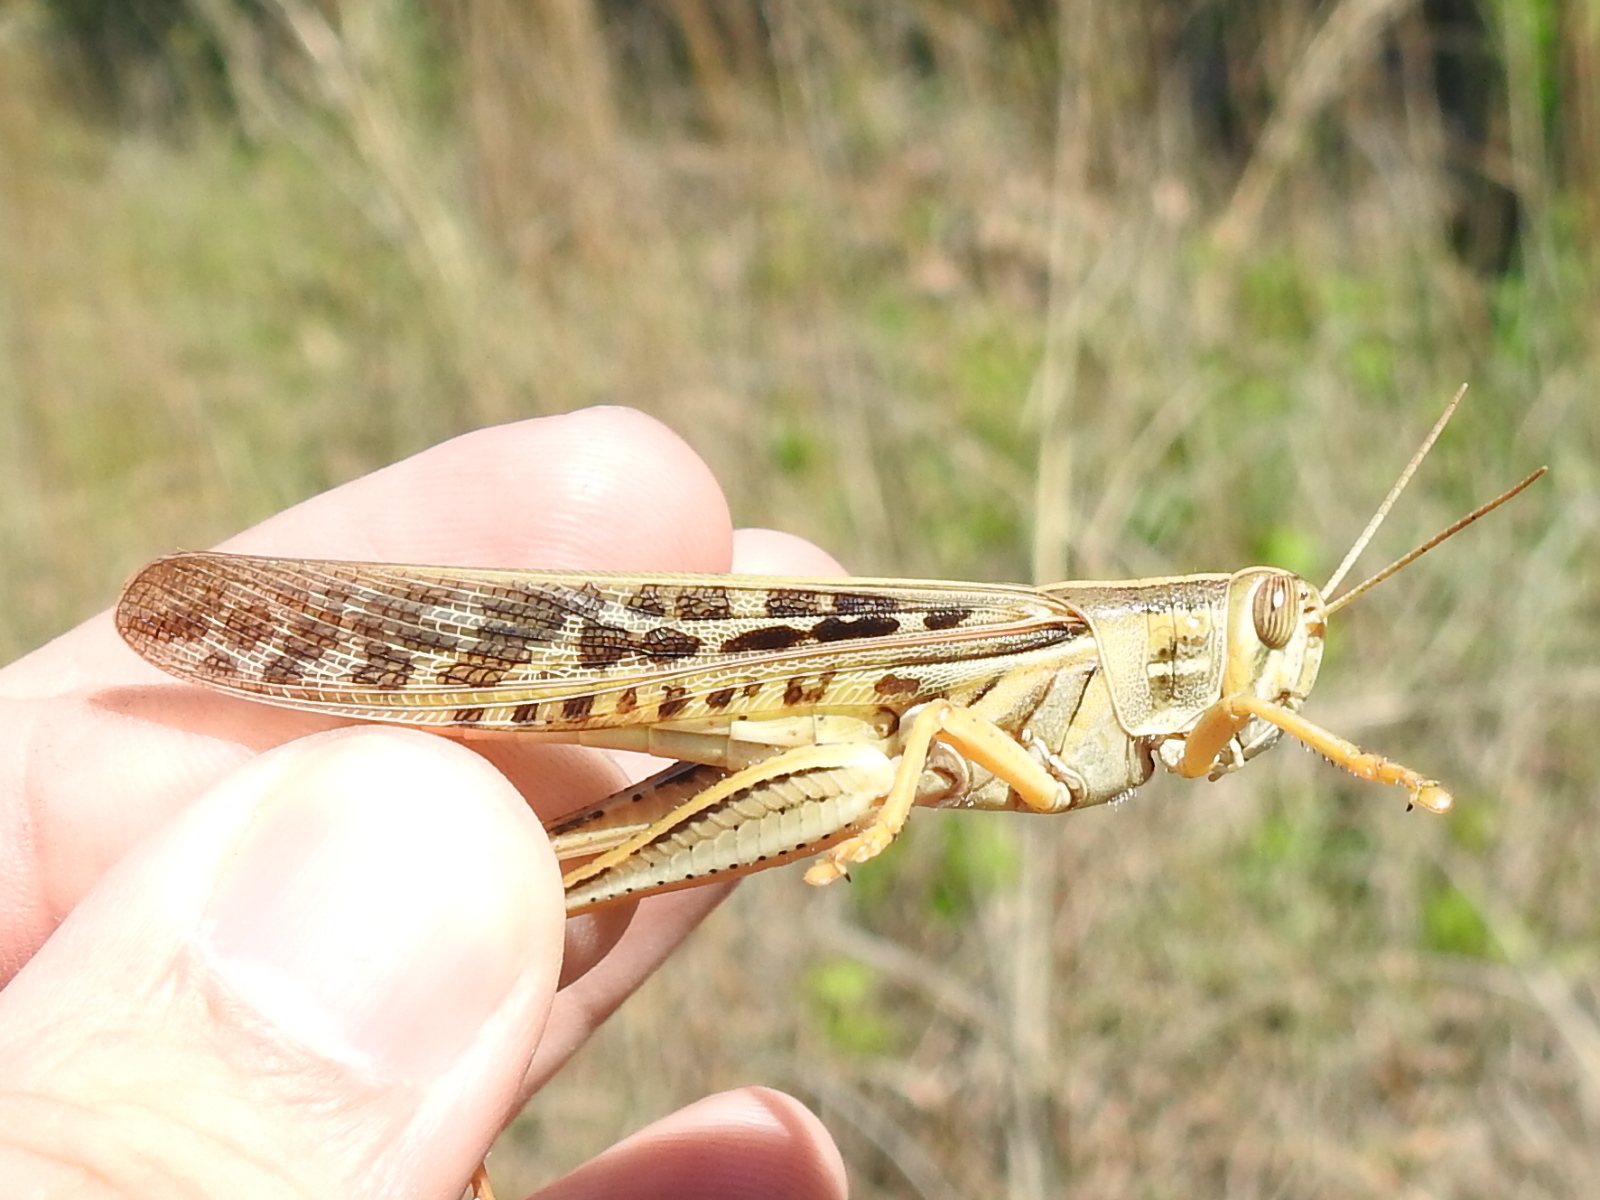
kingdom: Animalia
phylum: Arthropoda
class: Insecta
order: Orthoptera
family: Acrididae
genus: Schistocerca
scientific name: Schistocerca americana
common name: American bird locust
